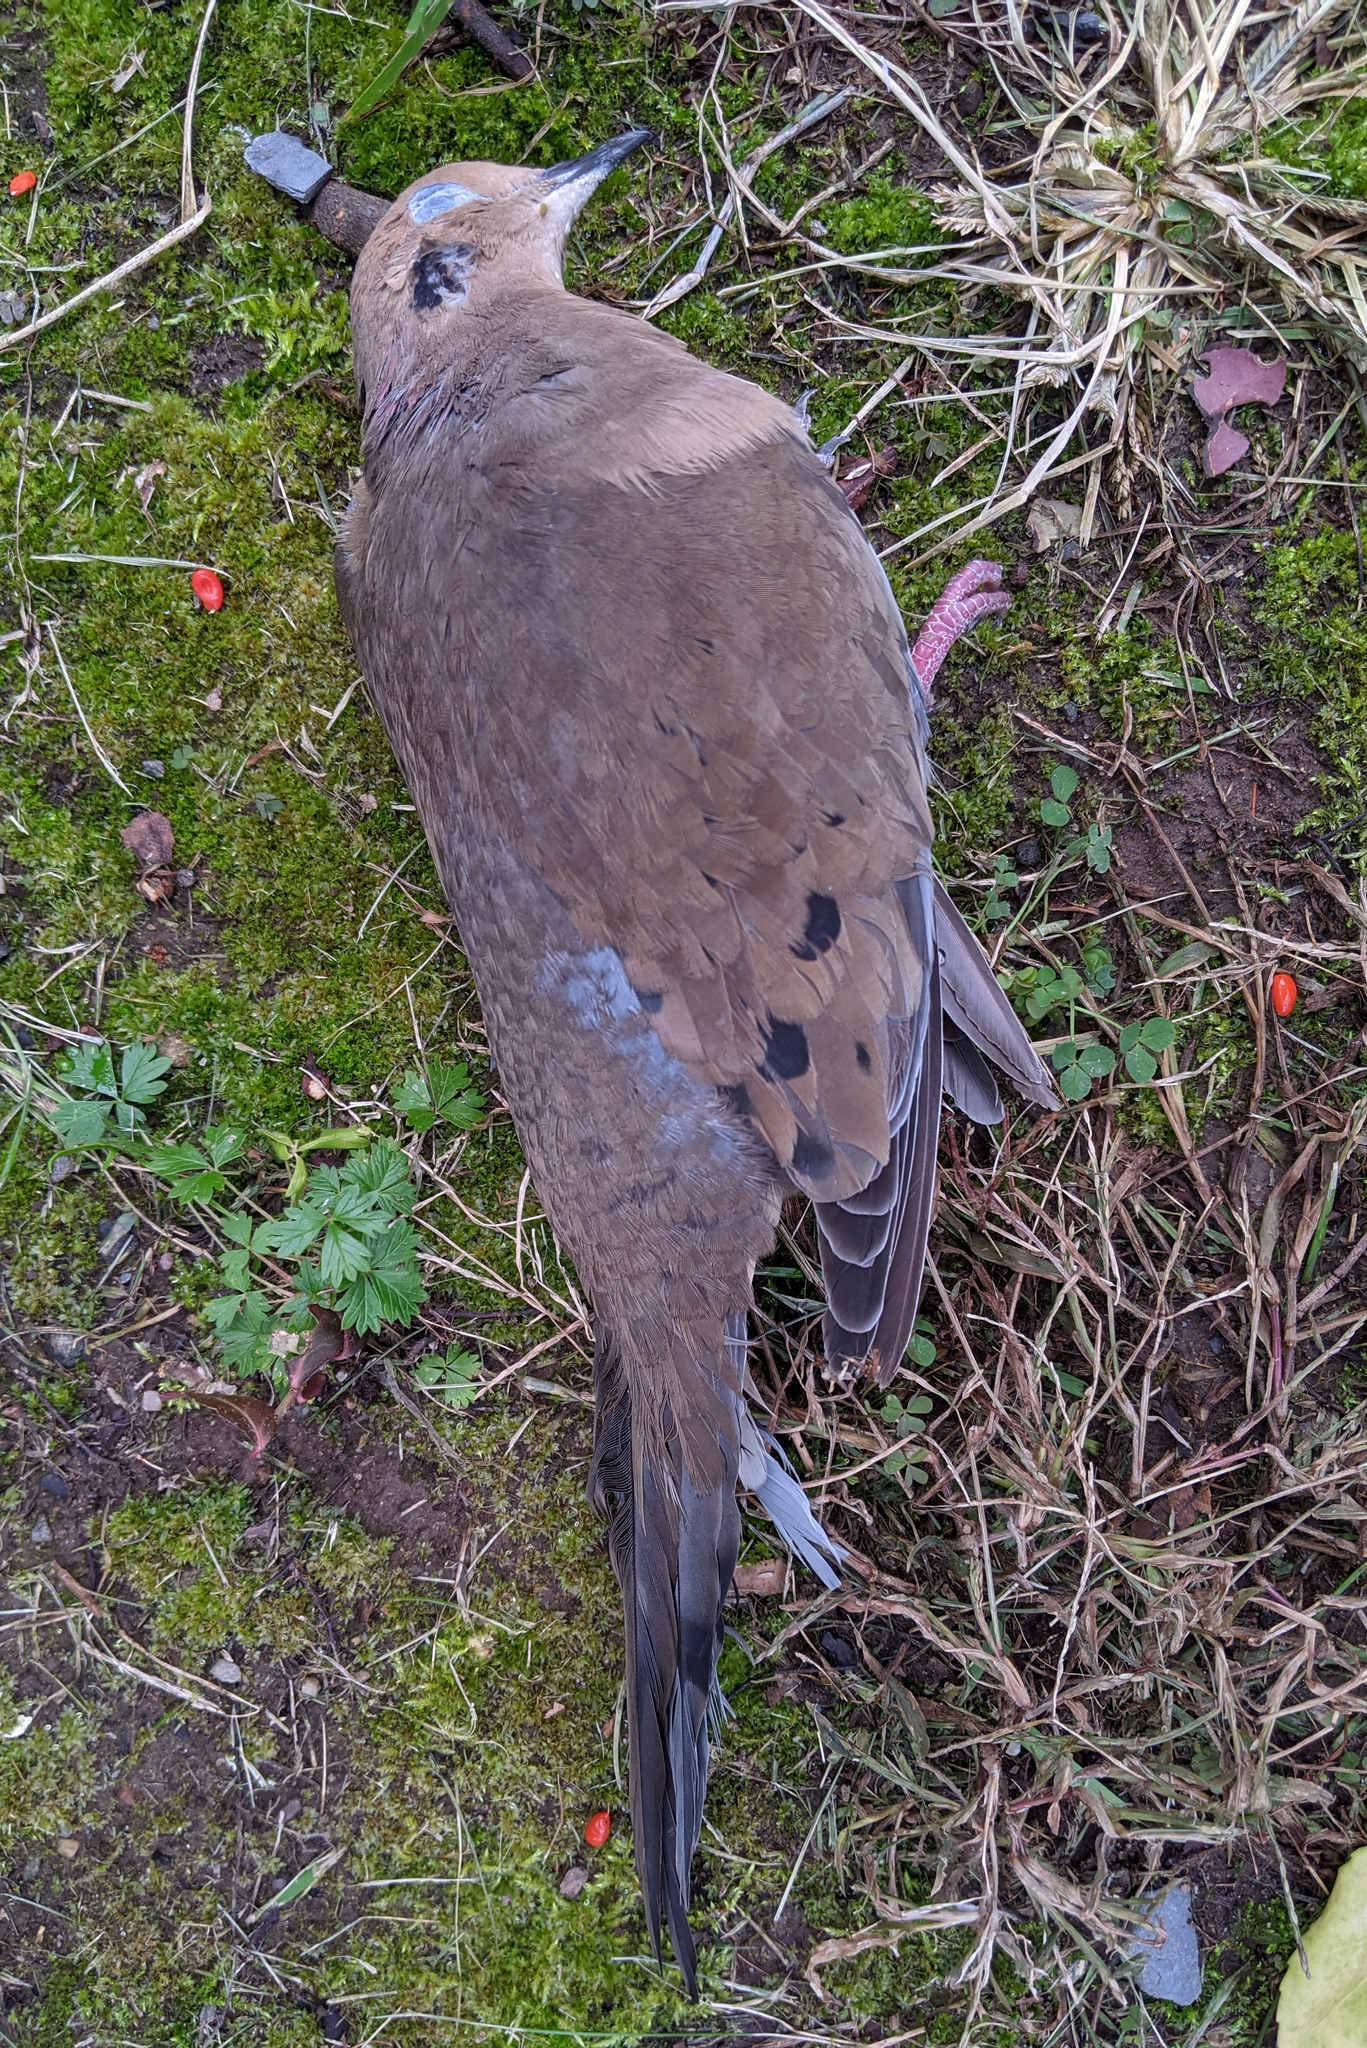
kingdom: Animalia
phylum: Chordata
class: Aves
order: Columbiformes
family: Columbidae
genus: Zenaida
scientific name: Zenaida macroura
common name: Mourning dove
